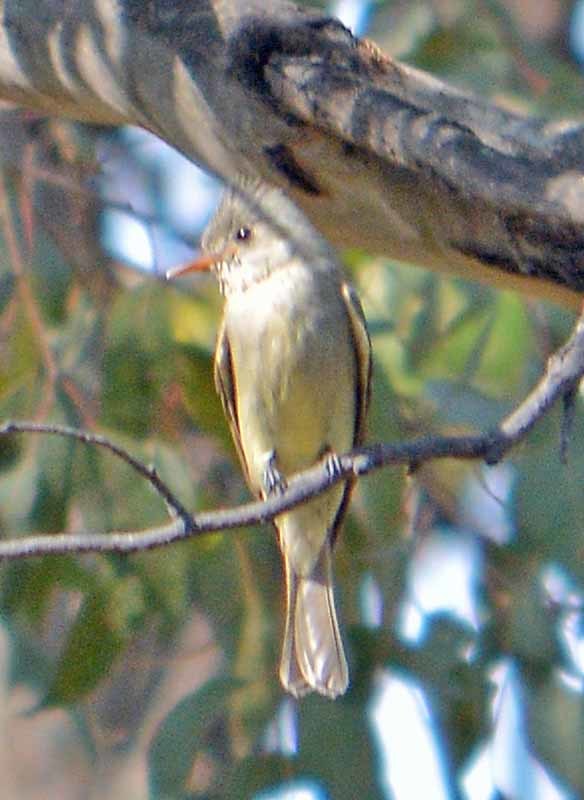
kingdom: Animalia
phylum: Chordata
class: Aves
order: Passeriformes
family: Tyrannidae
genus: Contopus
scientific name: Contopus pertinax
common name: Greater pewee
